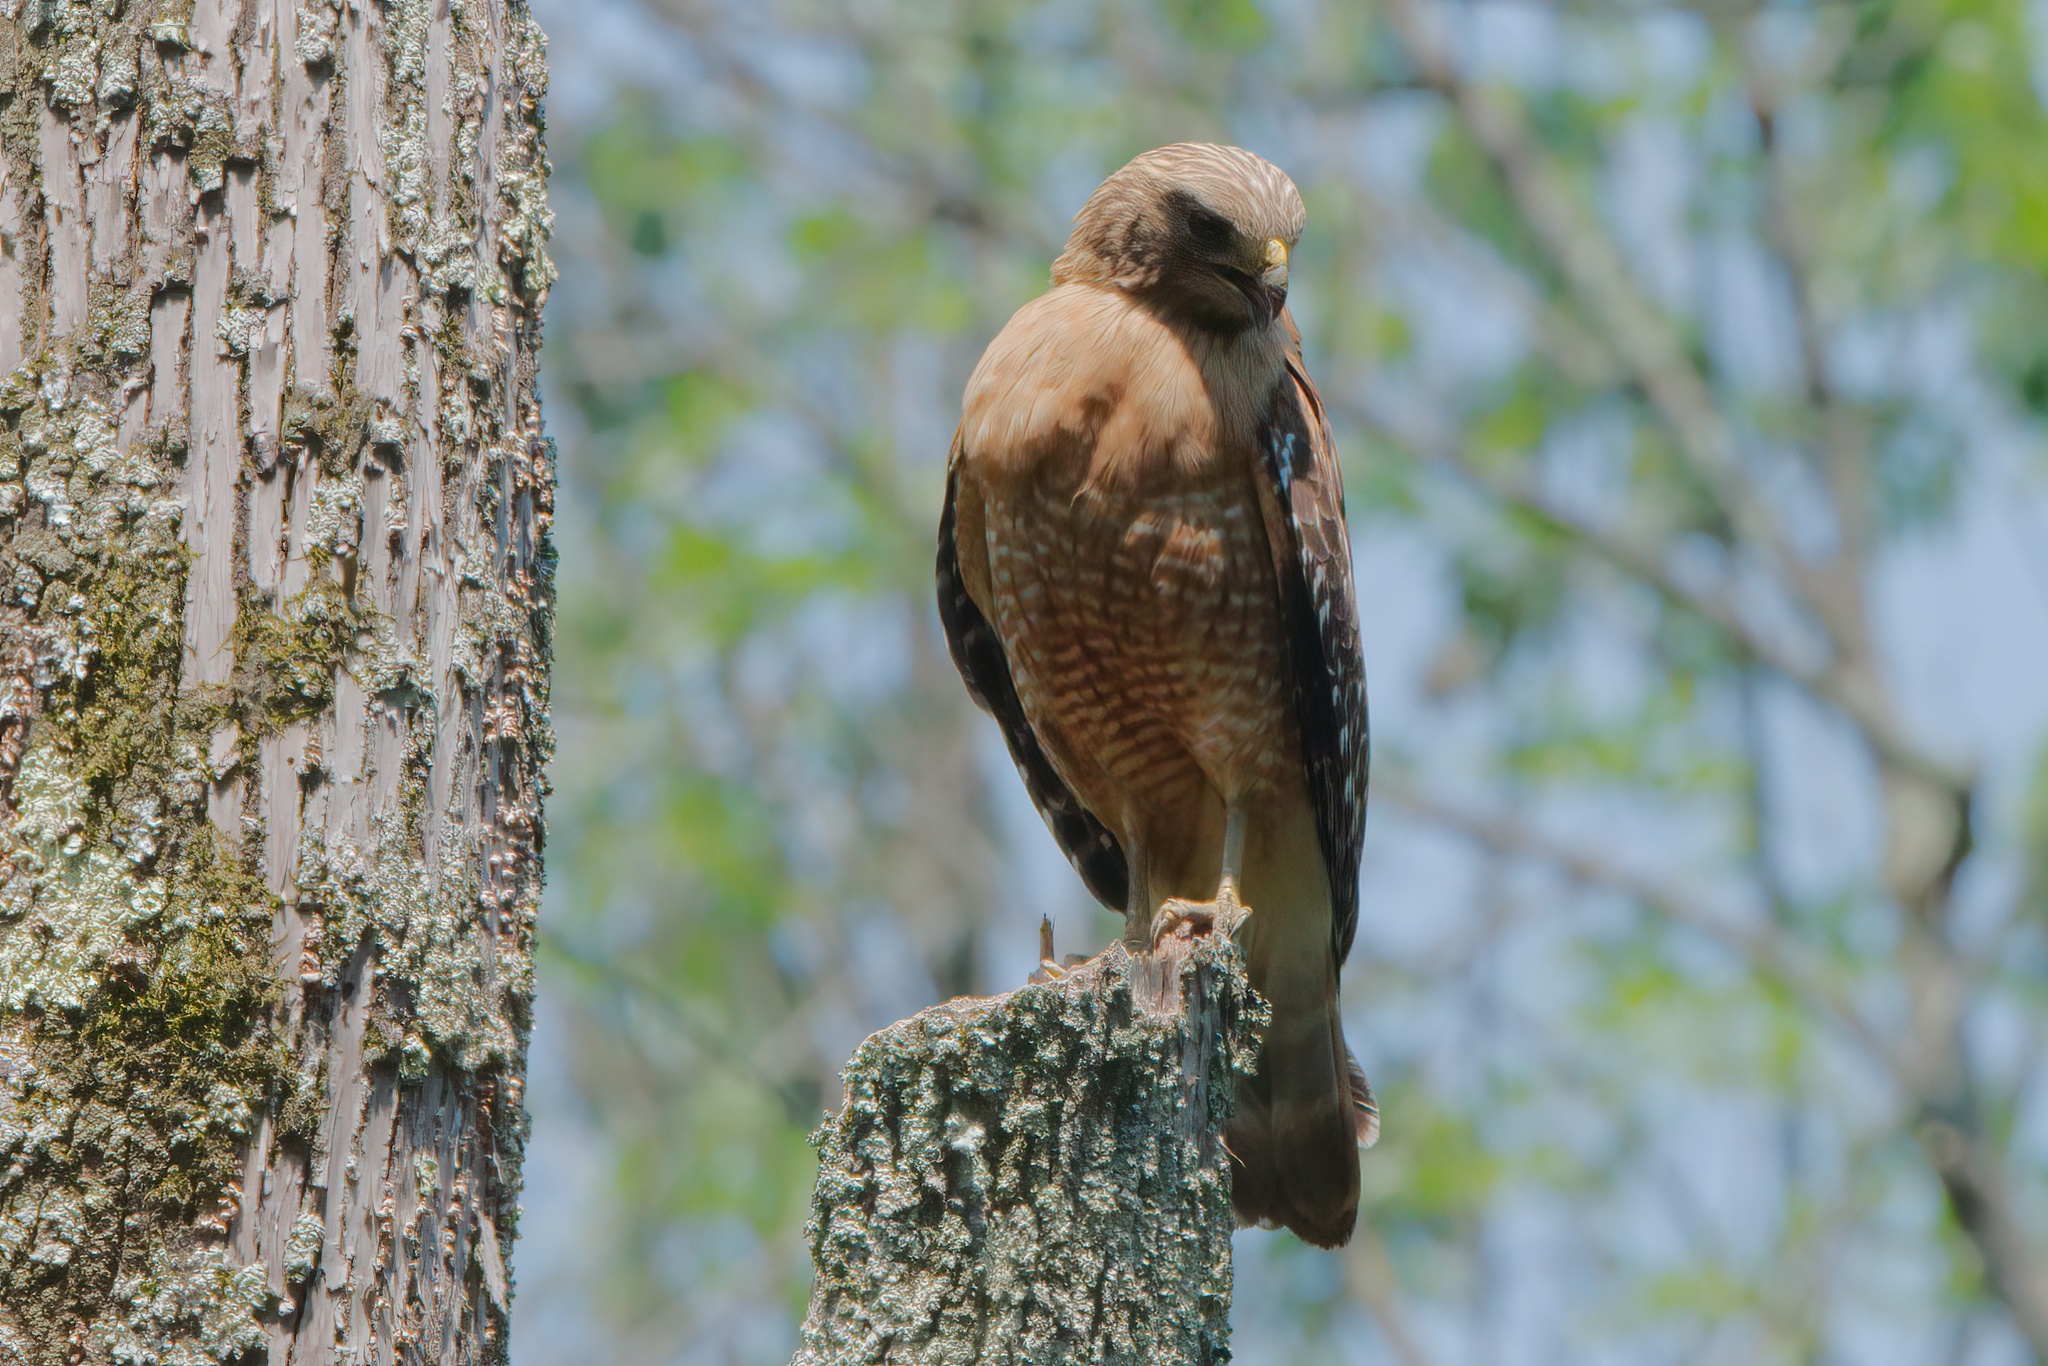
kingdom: Animalia
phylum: Chordata
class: Aves
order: Accipitriformes
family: Accipitridae
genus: Buteo
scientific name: Buteo lineatus
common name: Red-shouldered hawk
